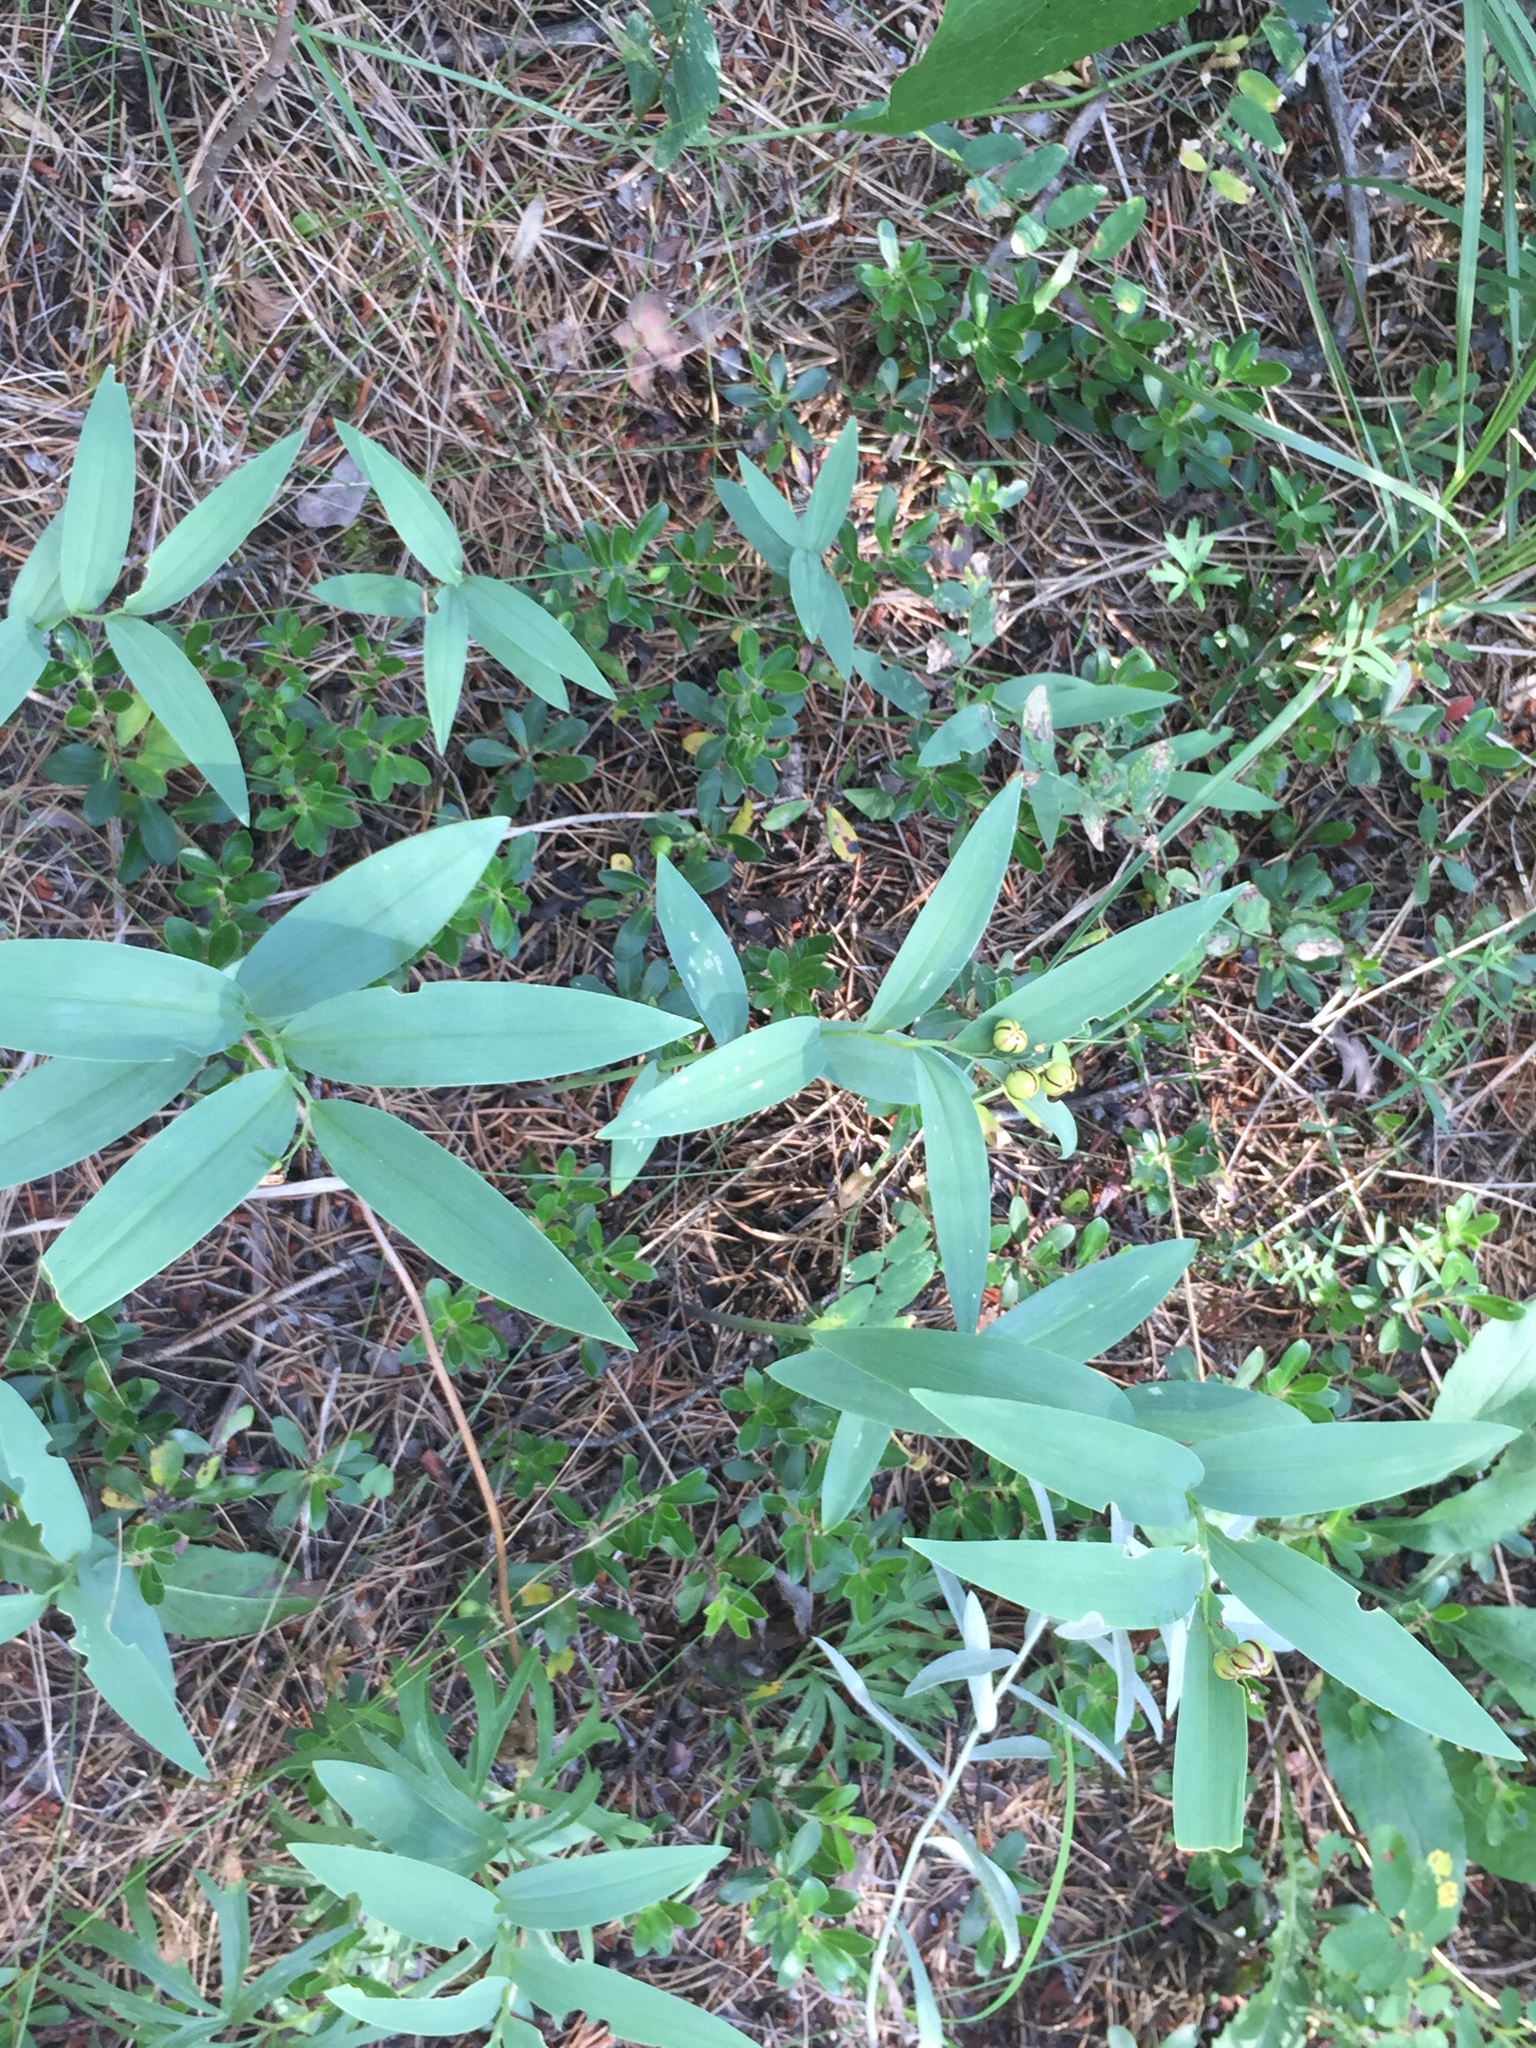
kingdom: Plantae
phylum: Tracheophyta
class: Liliopsida
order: Asparagales
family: Asparagaceae
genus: Maianthemum
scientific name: Maianthemum stellatum
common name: Little false solomon's seal
